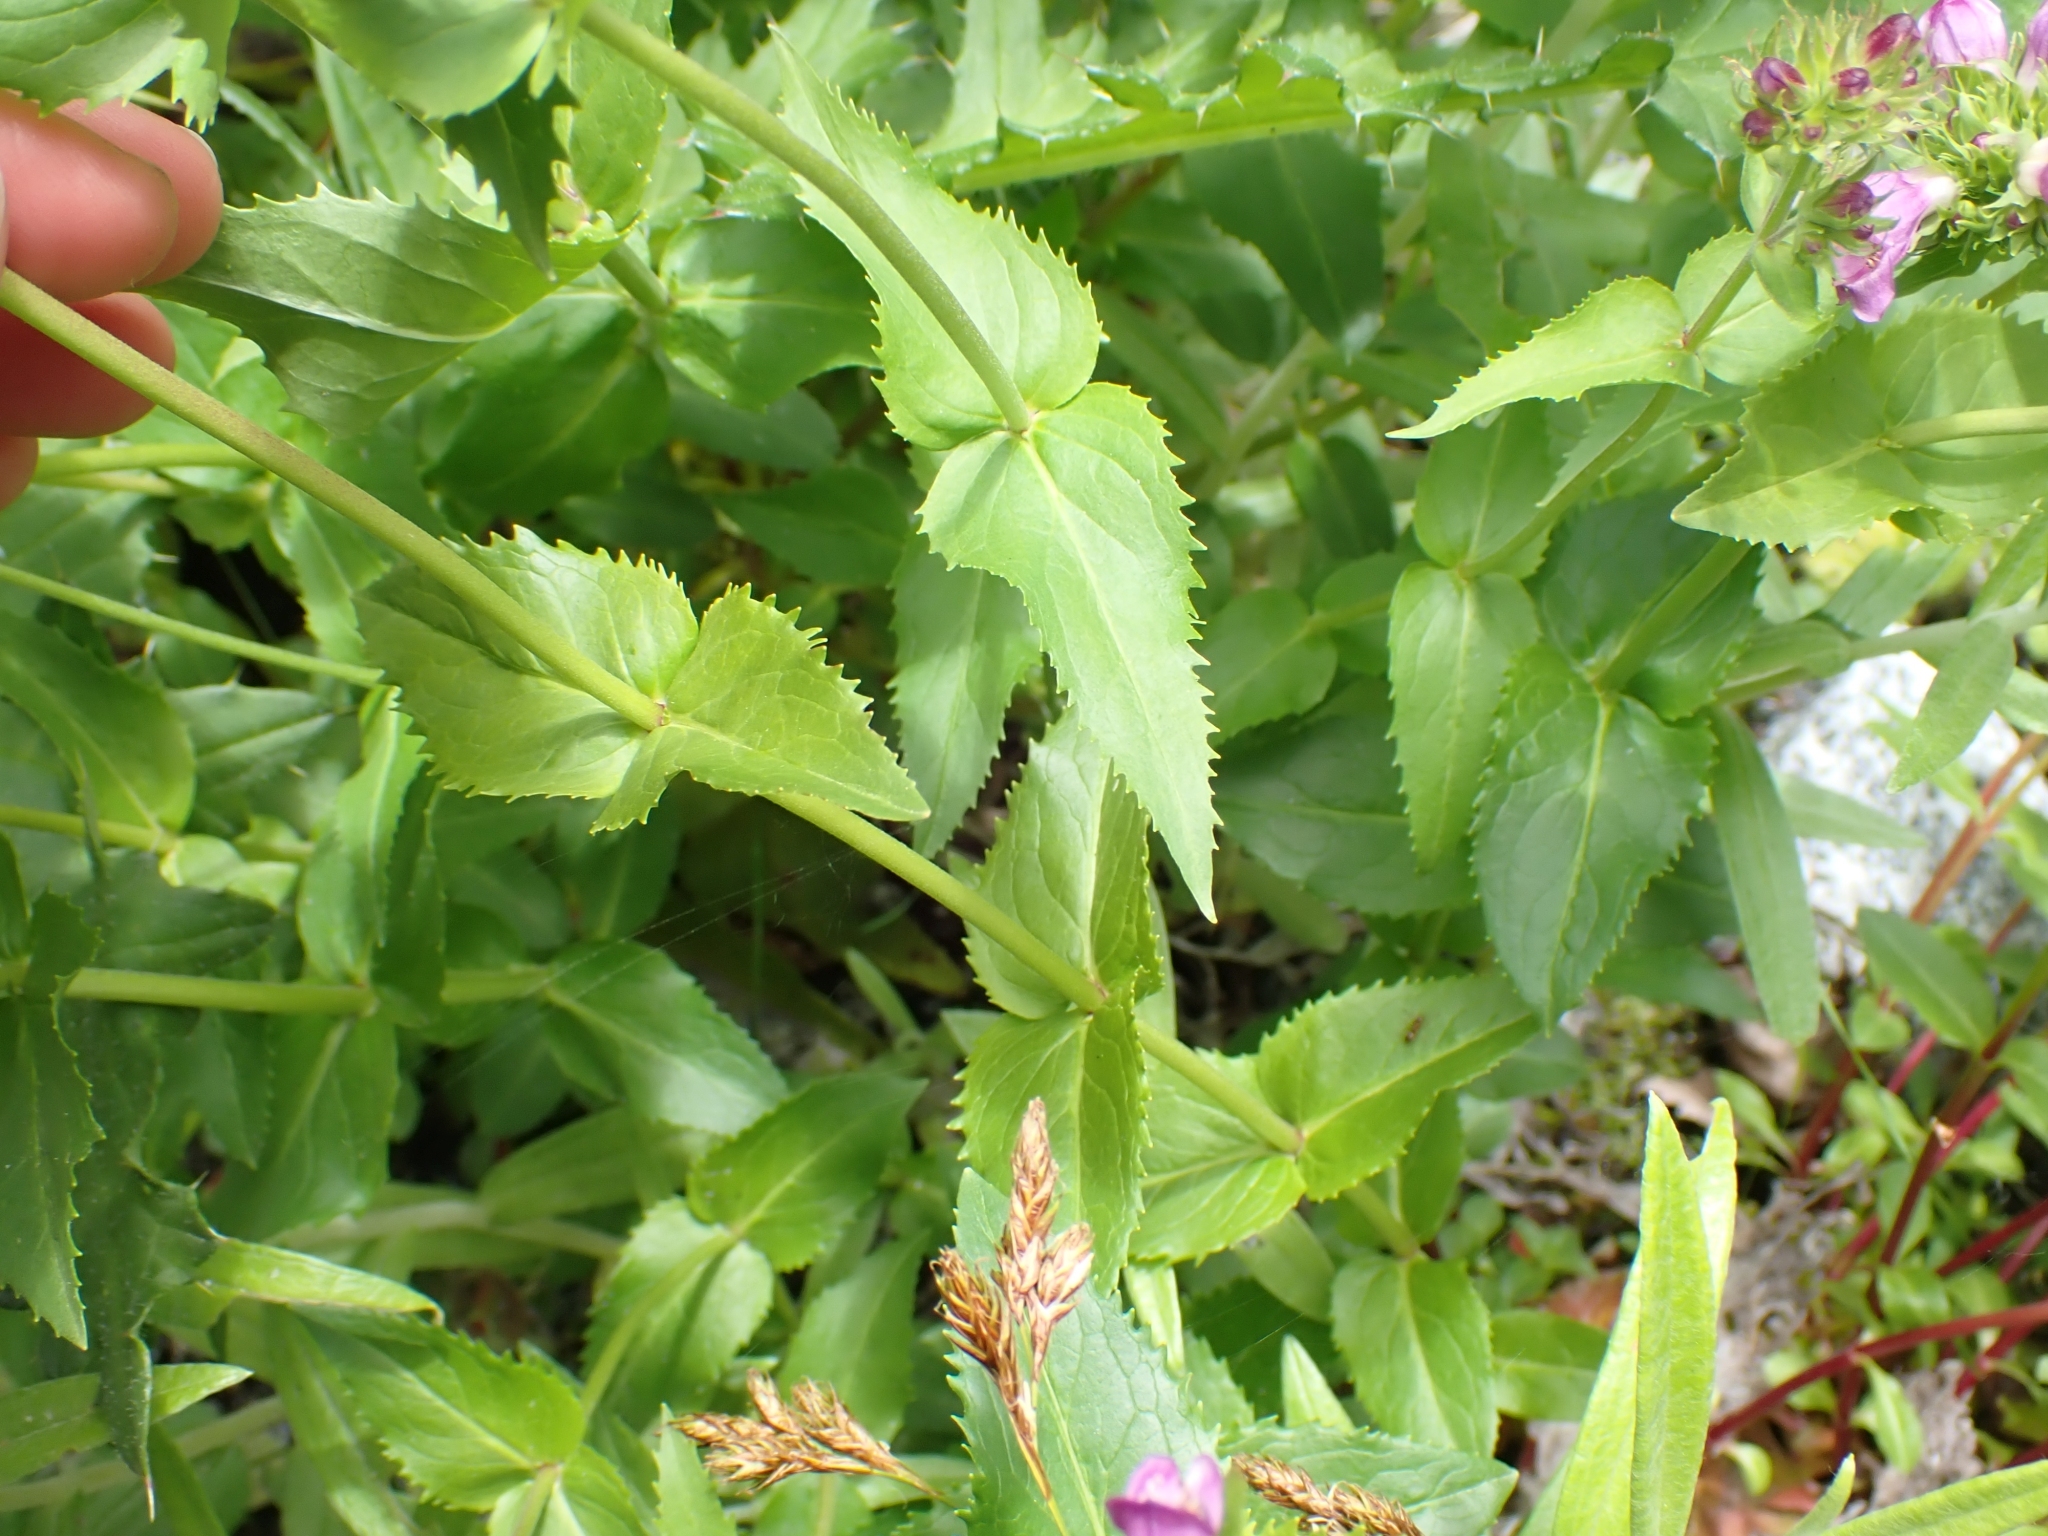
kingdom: Plantae
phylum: Tracheophyta
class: Magnoliopsida
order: Lamiales
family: Plantaginaceae
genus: Penstemon
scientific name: Penstemon serrulatus
